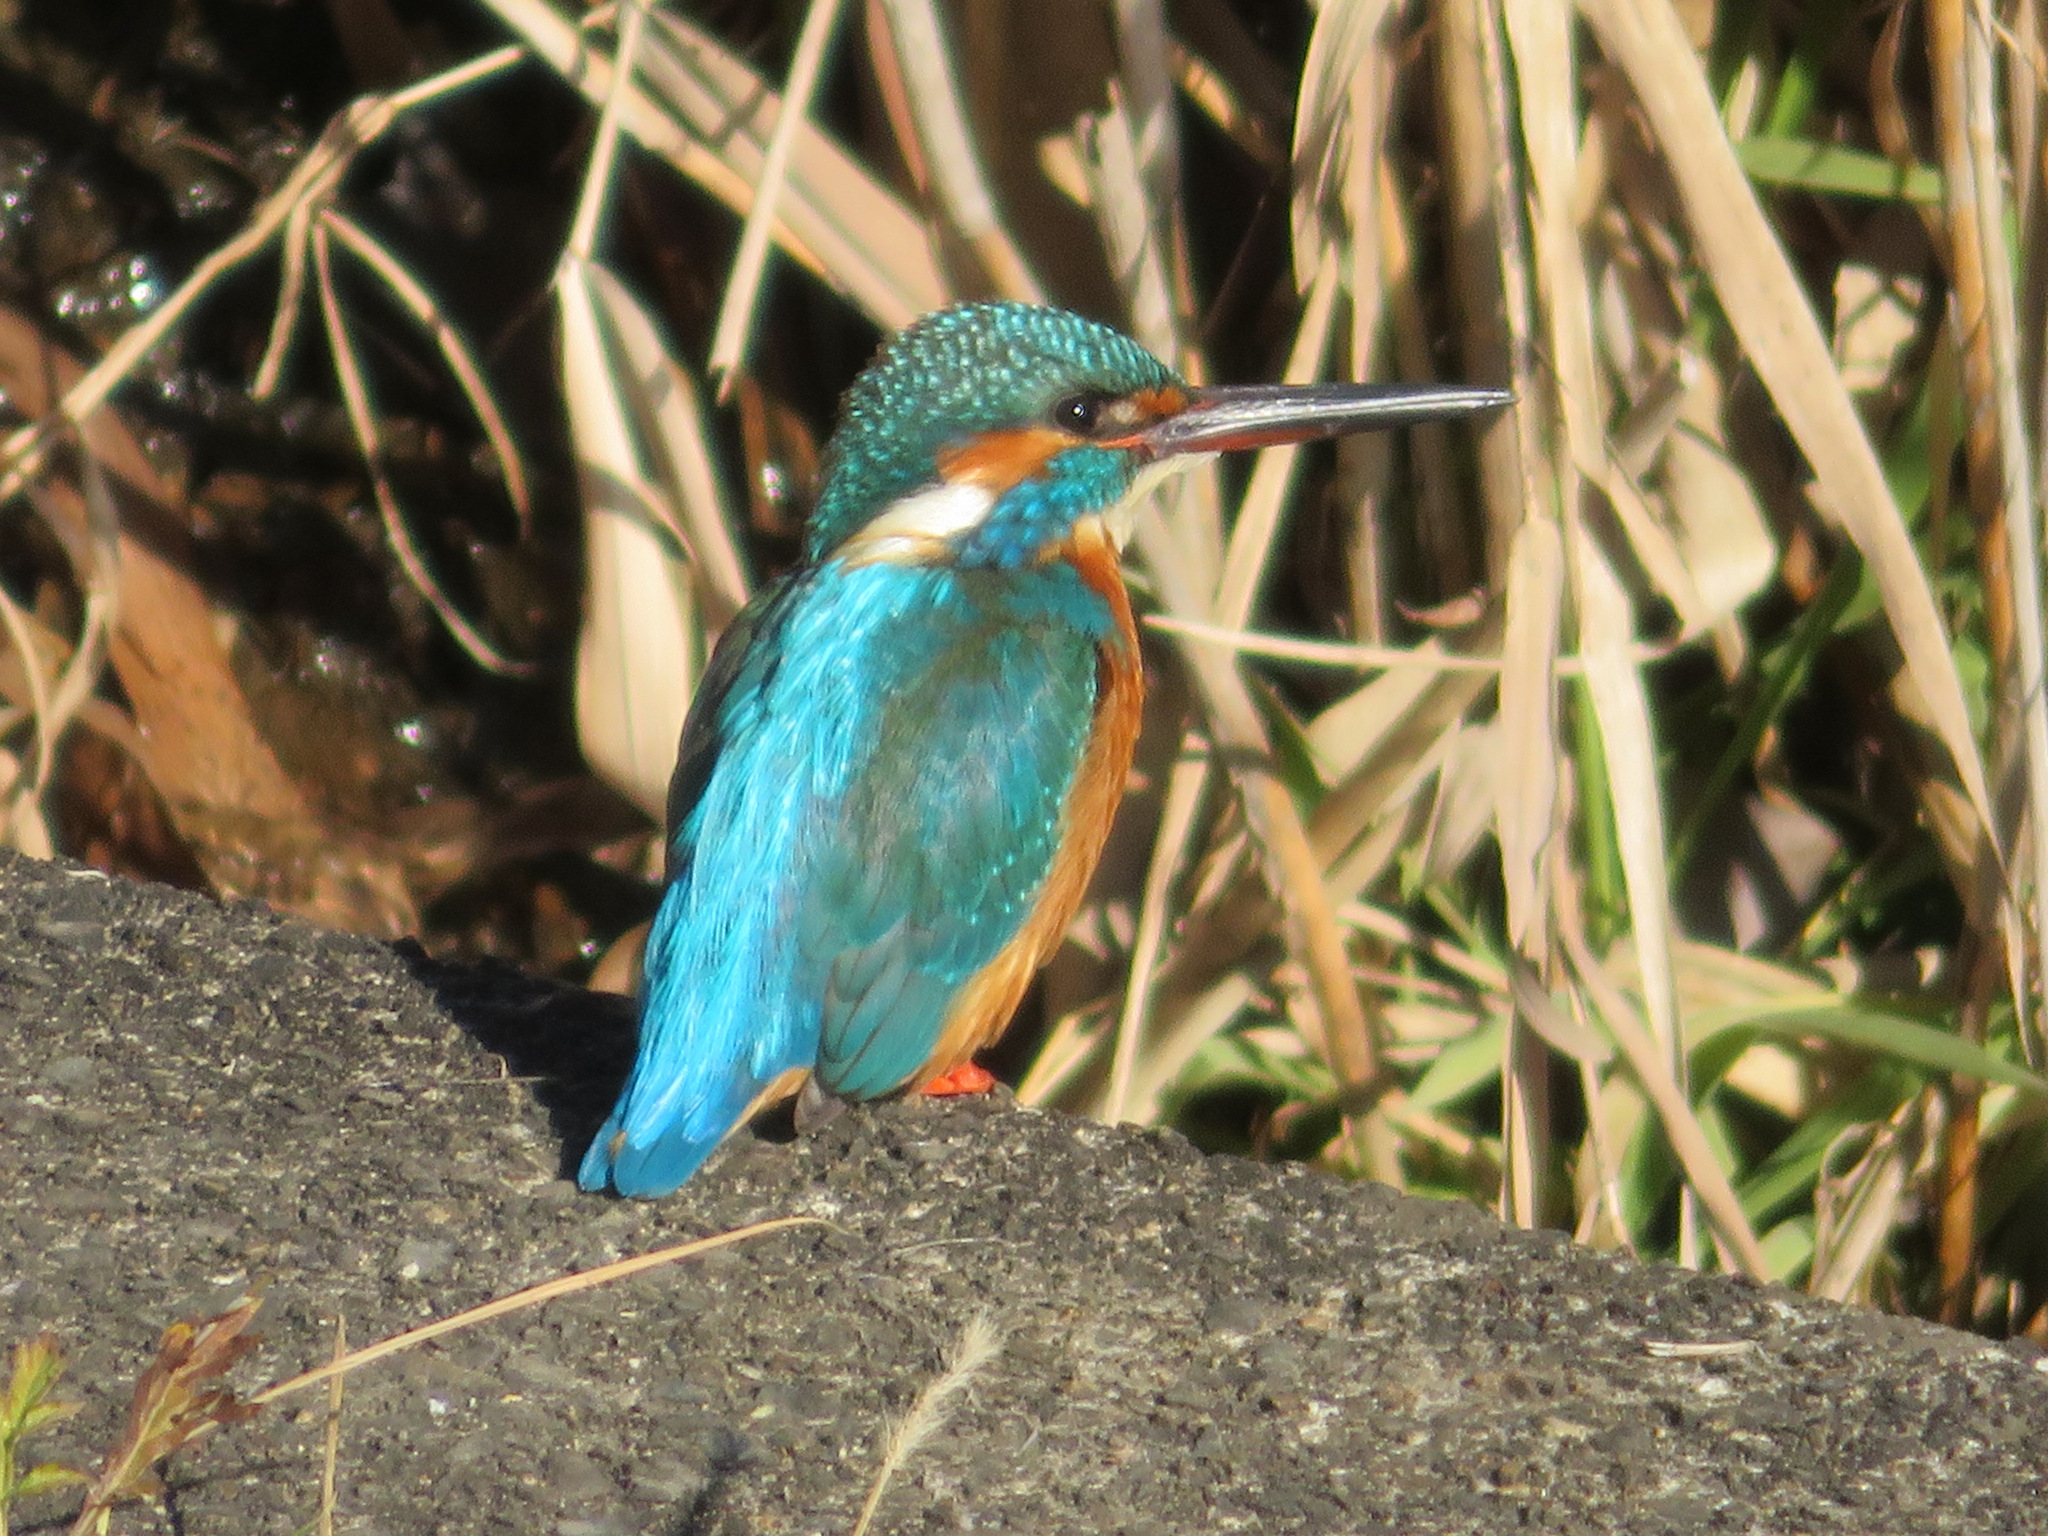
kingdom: Animalia
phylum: Chordata
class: Aves
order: Coraciiformes
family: Alcedinidae
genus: Alcedo
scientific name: Alcedo atthis
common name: Common kingfisher
